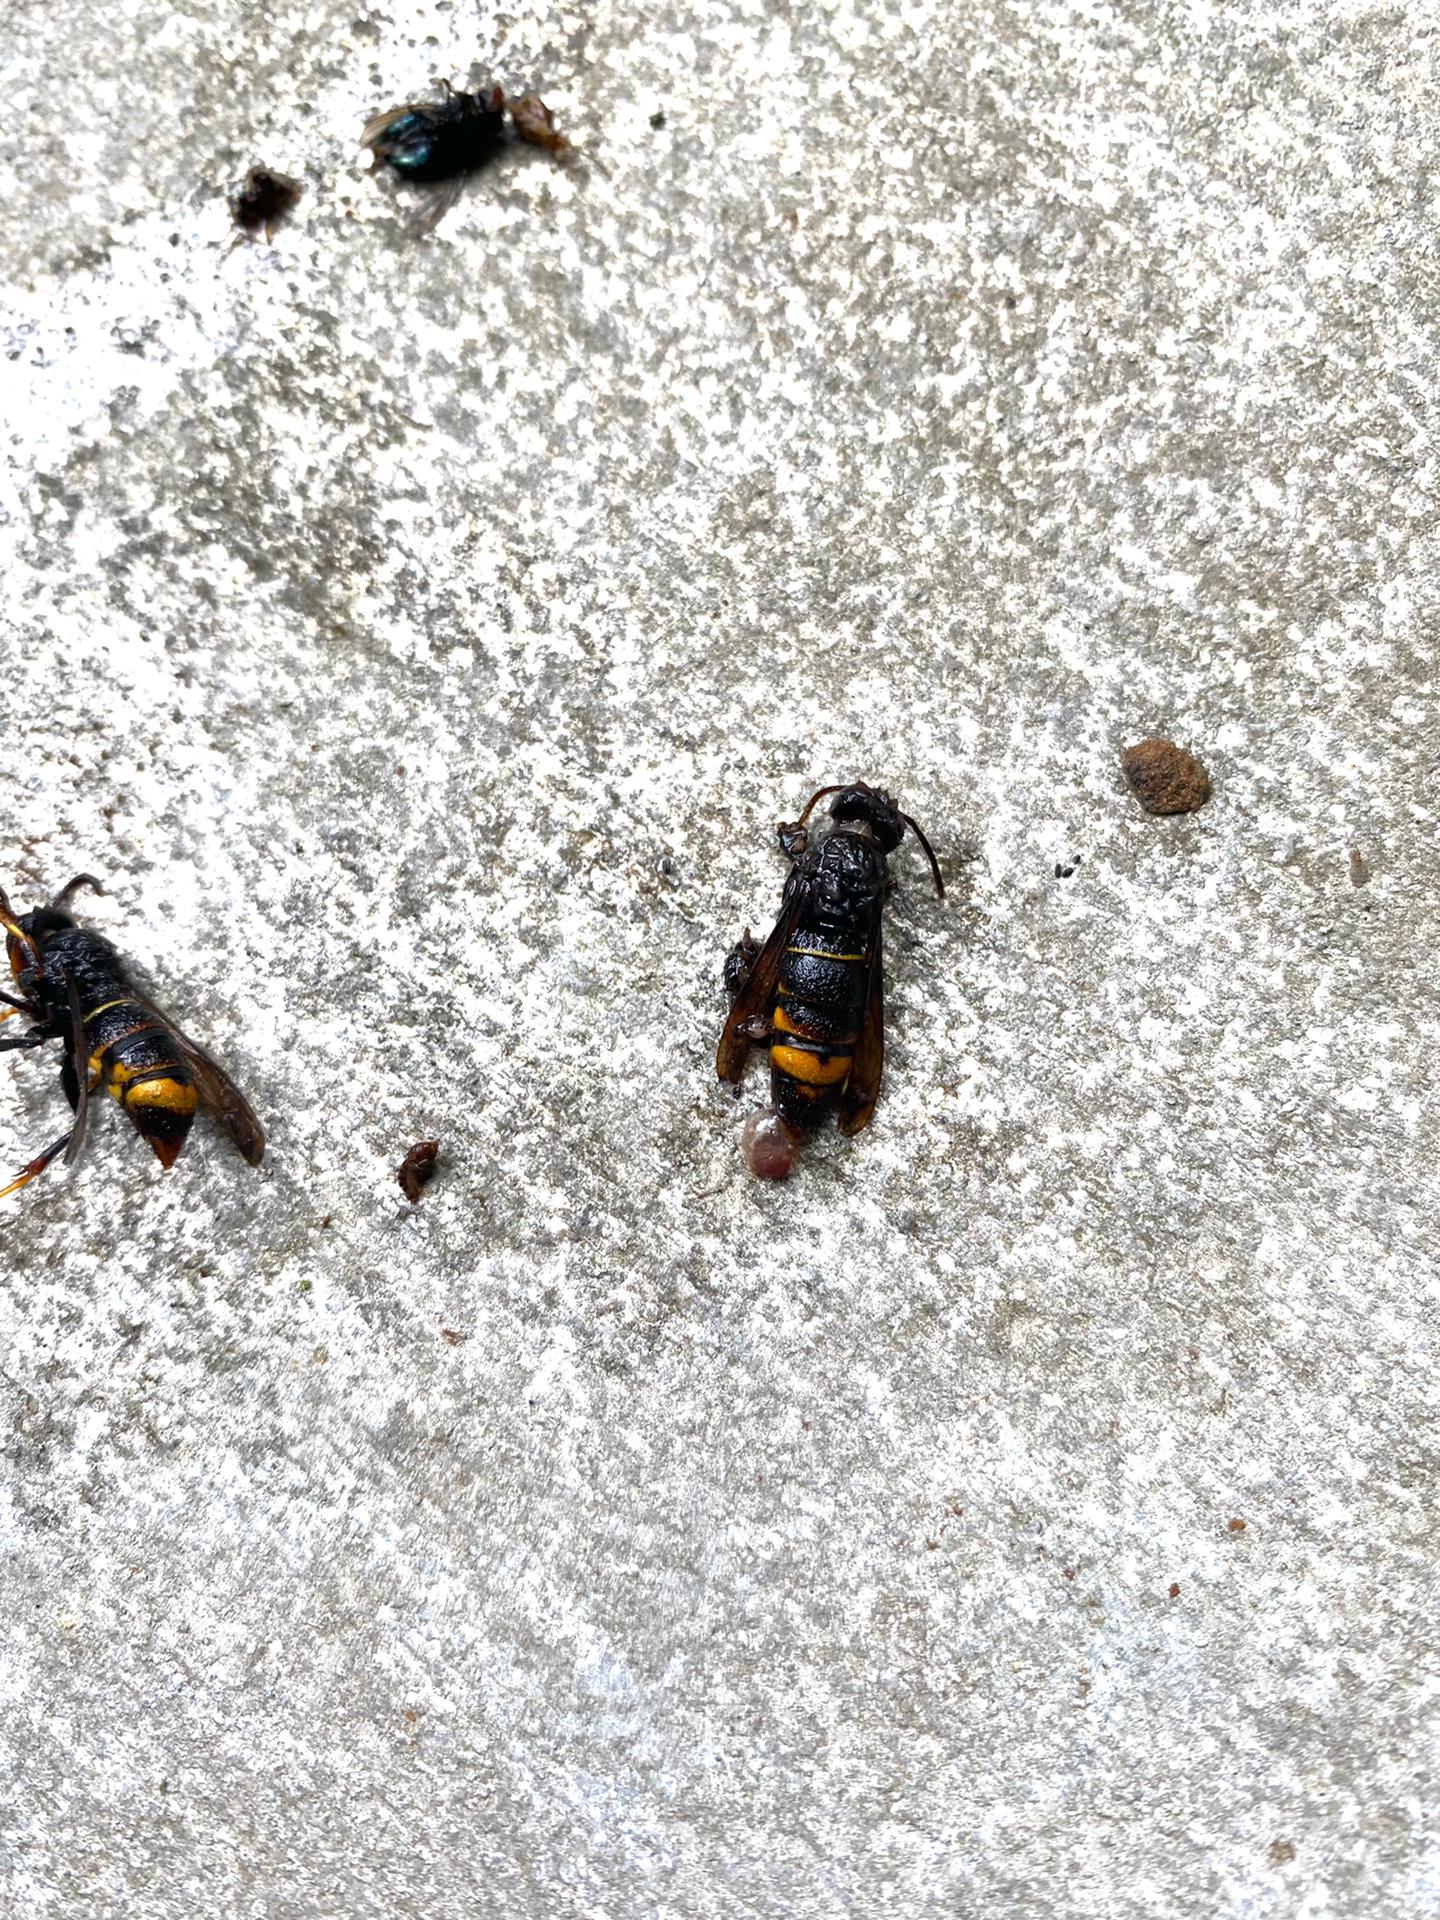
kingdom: Animalia
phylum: Arthropoda
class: Insecta
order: Hymenoptera
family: Vespidae
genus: Vespa
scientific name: Vespa velutina
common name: Asian hornet
